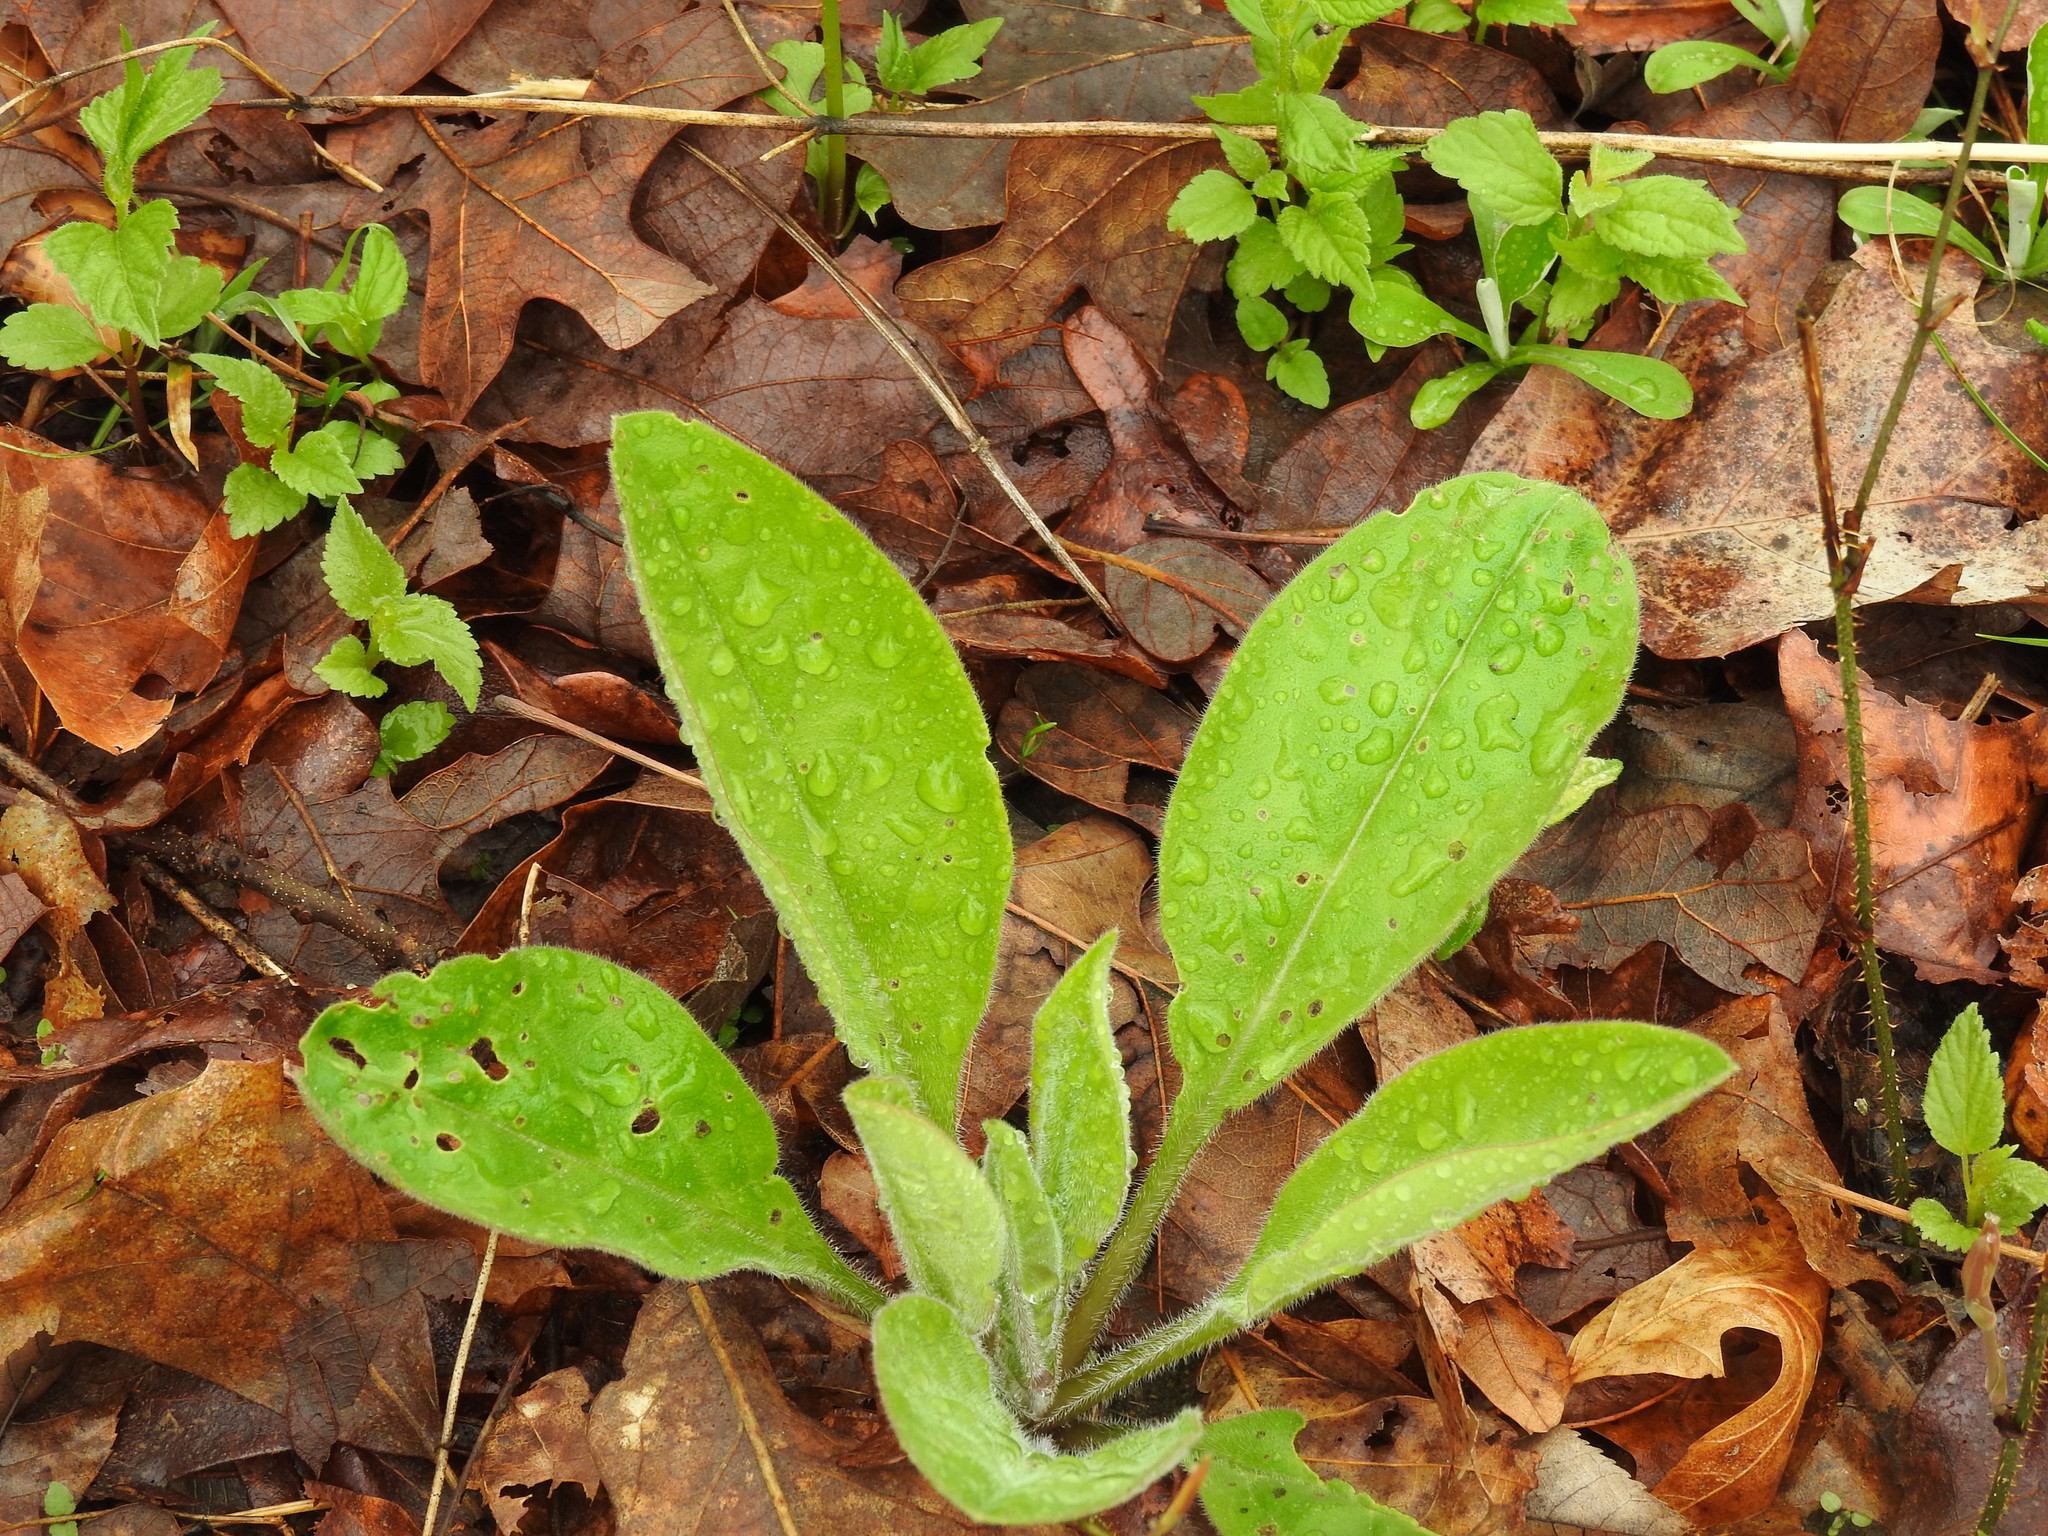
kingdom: Plantae
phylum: Tracheophyta
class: Magnoliopsida
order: Boraginales
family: Boraginaceae
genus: Andersonglossum
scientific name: Andersonglossum virginianum
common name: Wild comfrey
